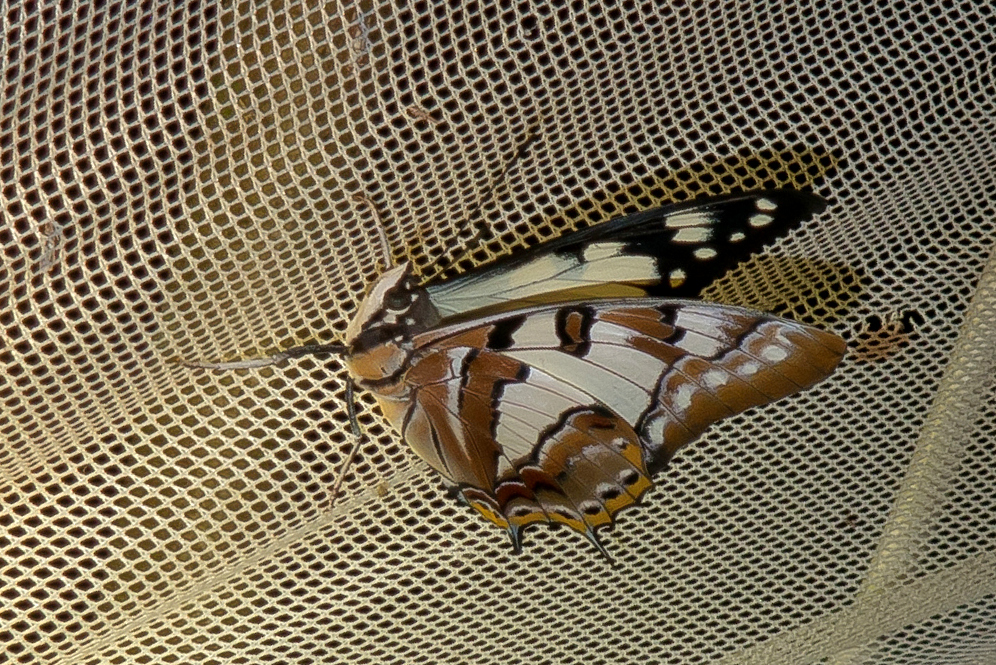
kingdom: Animalia
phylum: Arthropoda
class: Insecta
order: Lepidoptera
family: Nymphalidae
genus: Charaxes
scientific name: Charaxes
